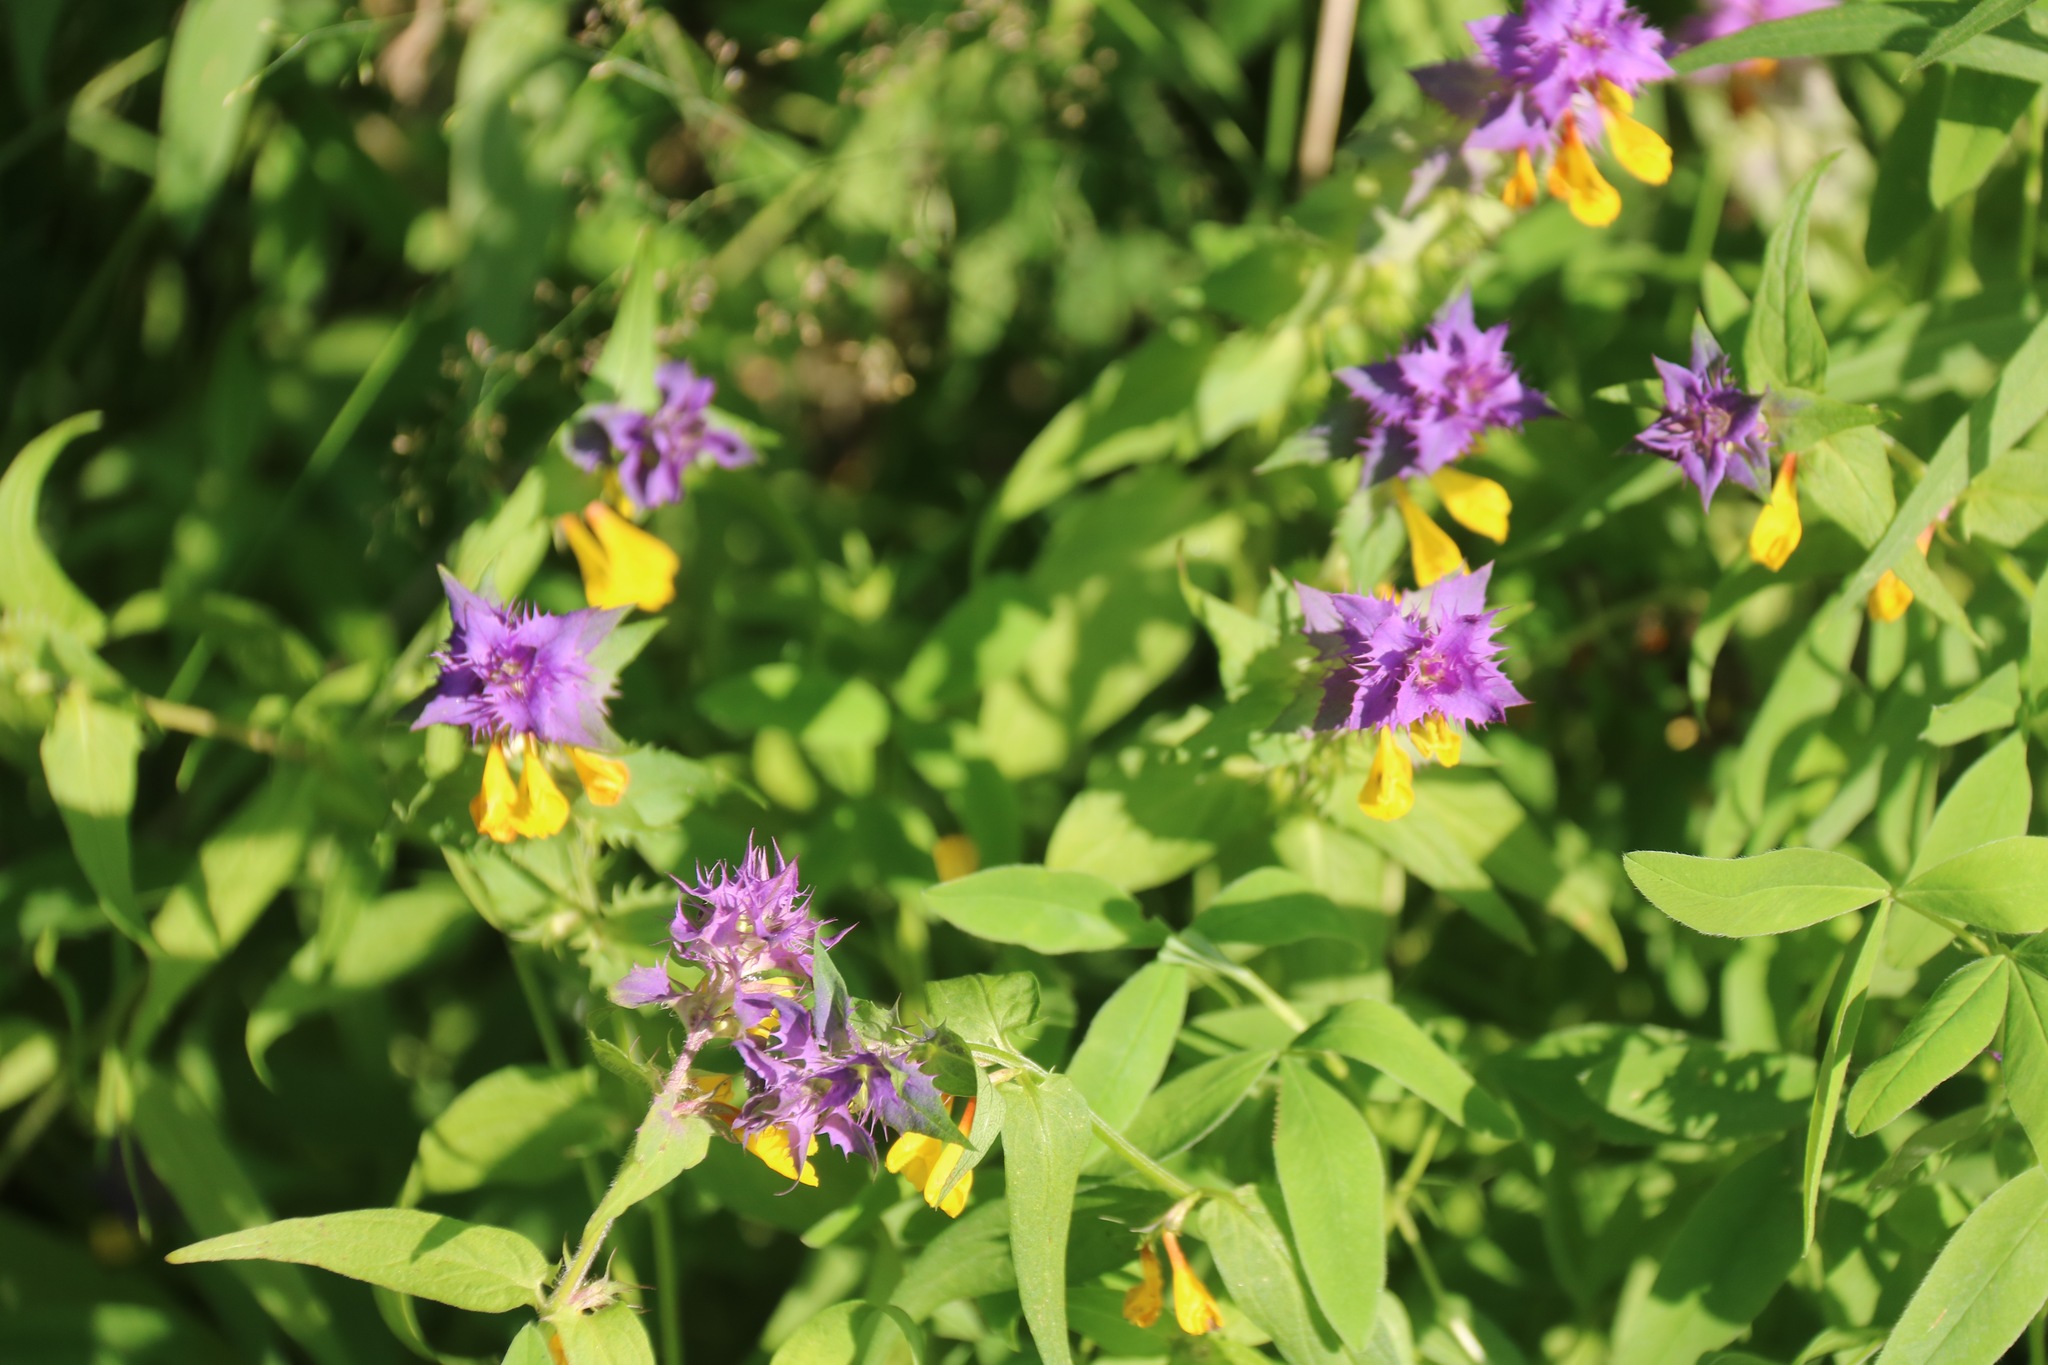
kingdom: Plantae
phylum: Tracheophyta
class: Magnoliopsida
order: Lamiales
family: Orobanchaceae
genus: Melampyrum
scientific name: Melampyrum nemorosum
